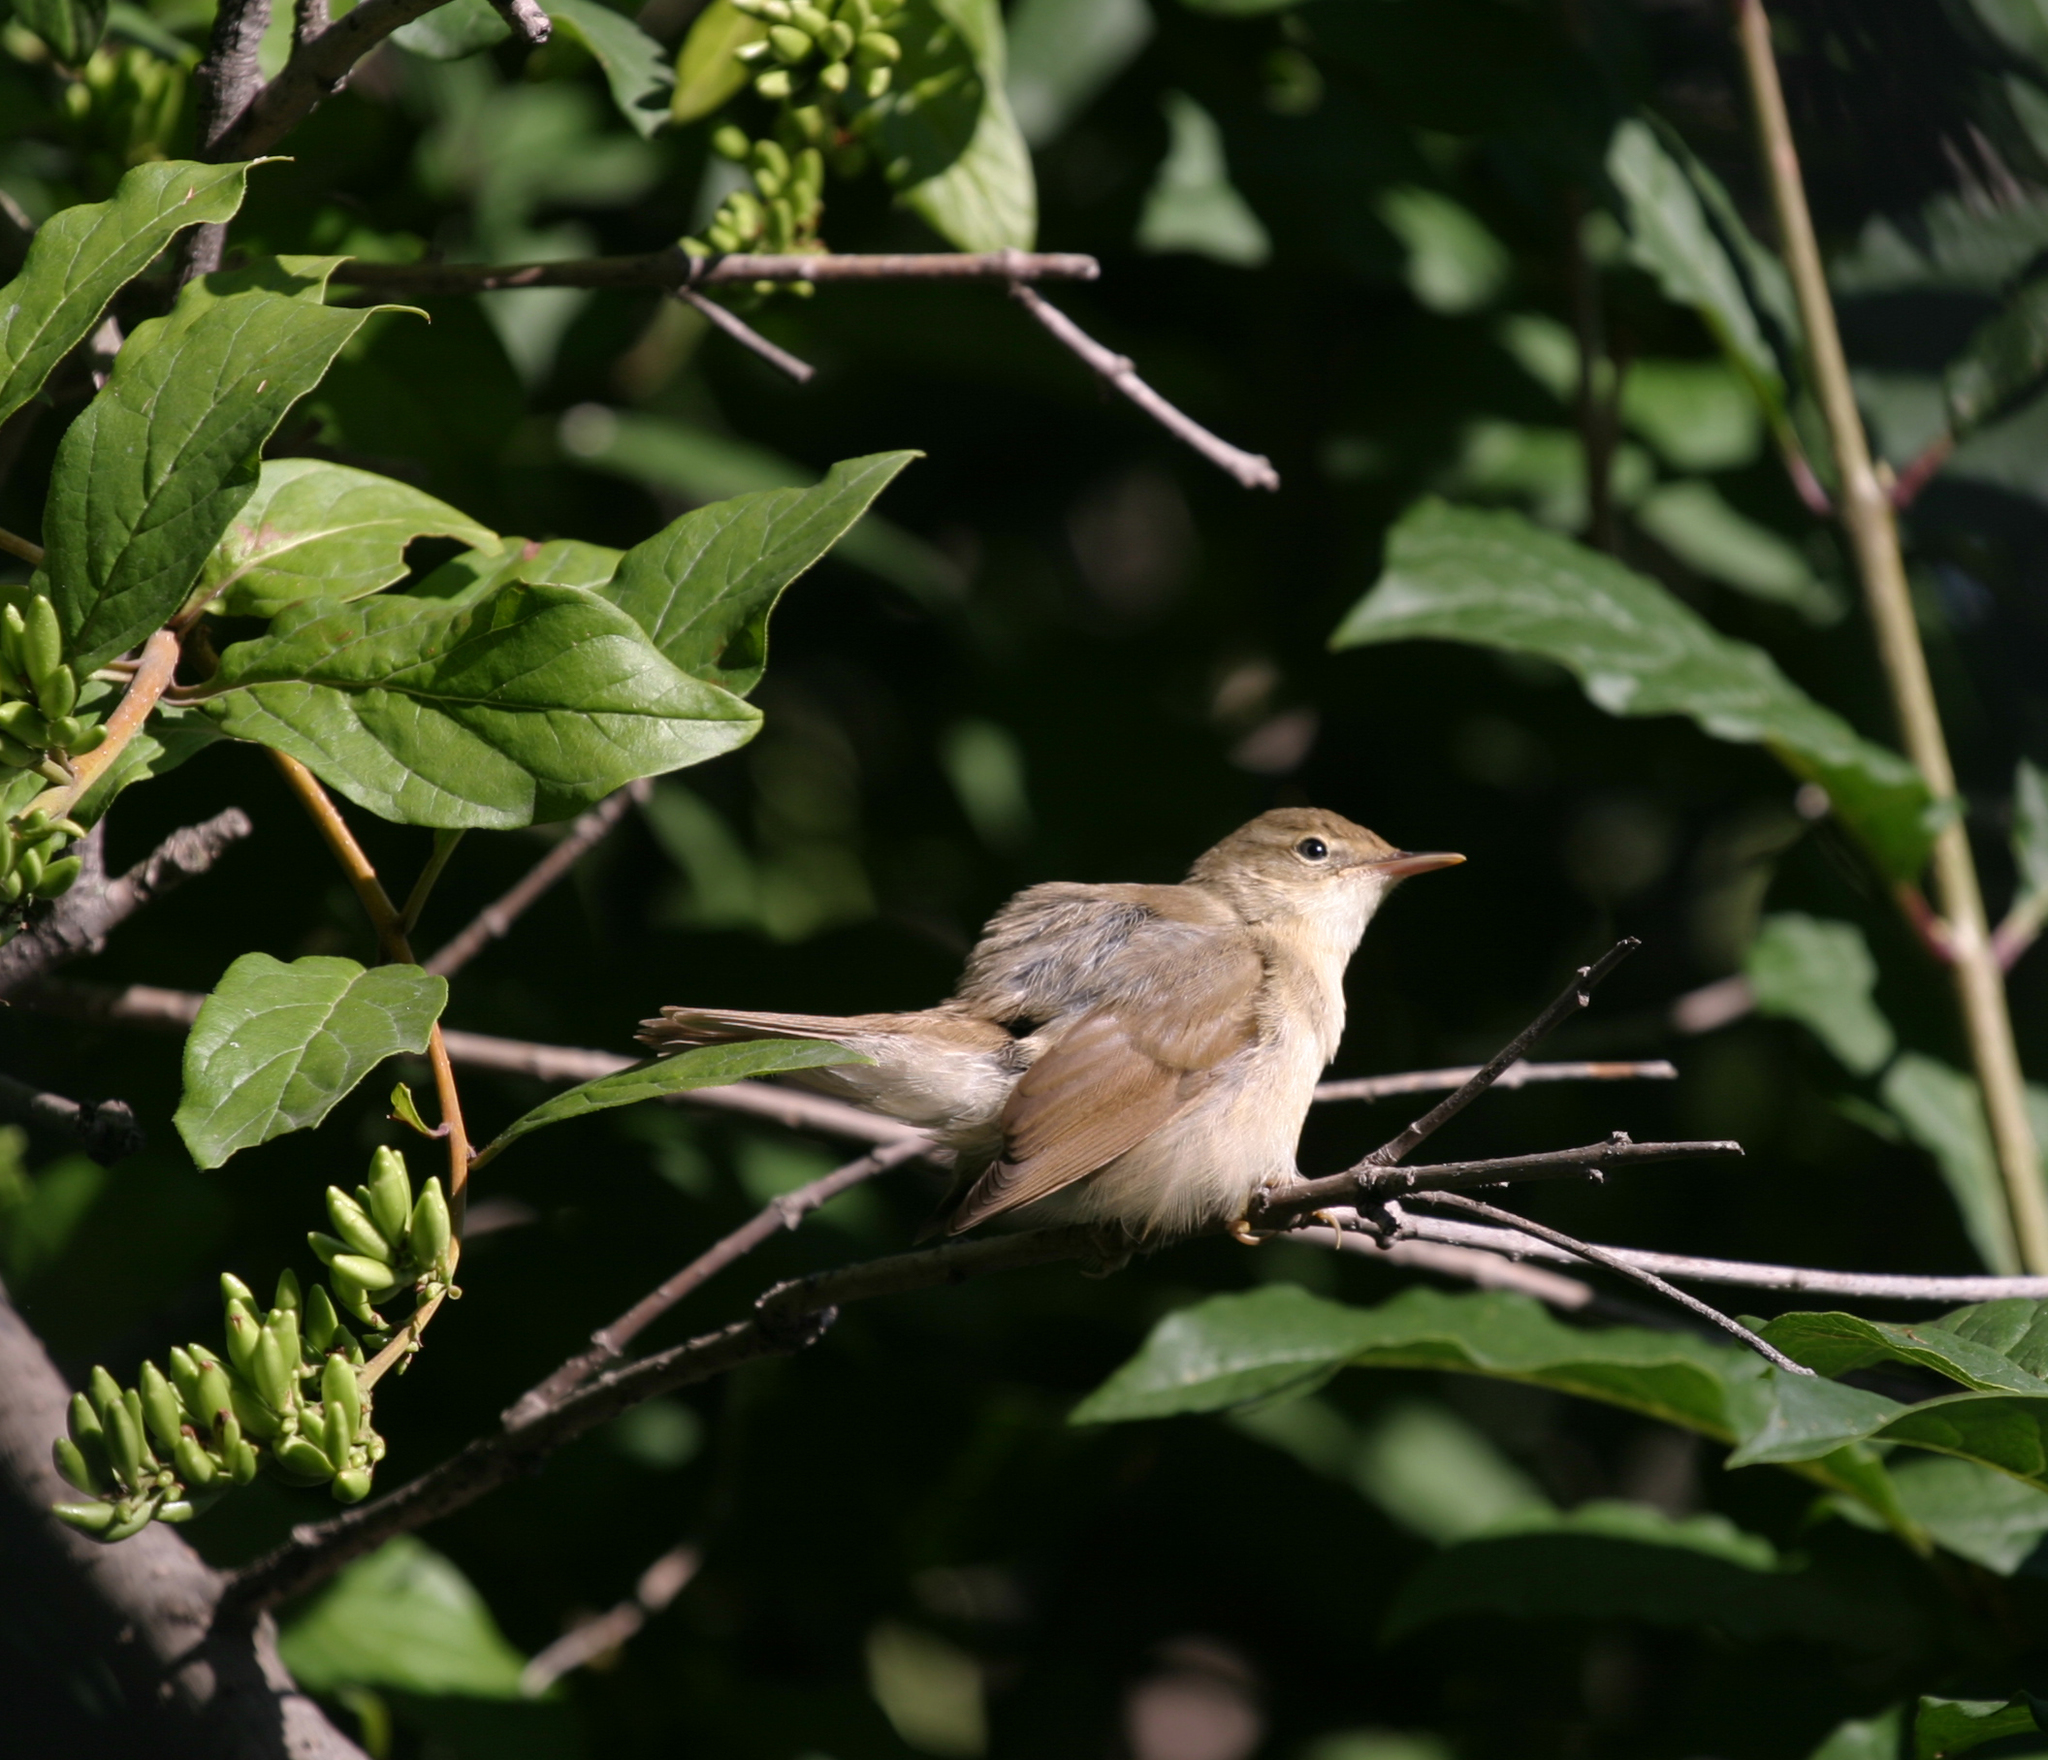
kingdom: Animalia
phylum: Chordata
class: Aves
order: Passeriformes
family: Acrocephalidae
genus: Acrocephalus
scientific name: Acrocephalus dumetorum
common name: Blyth's reed warbler
